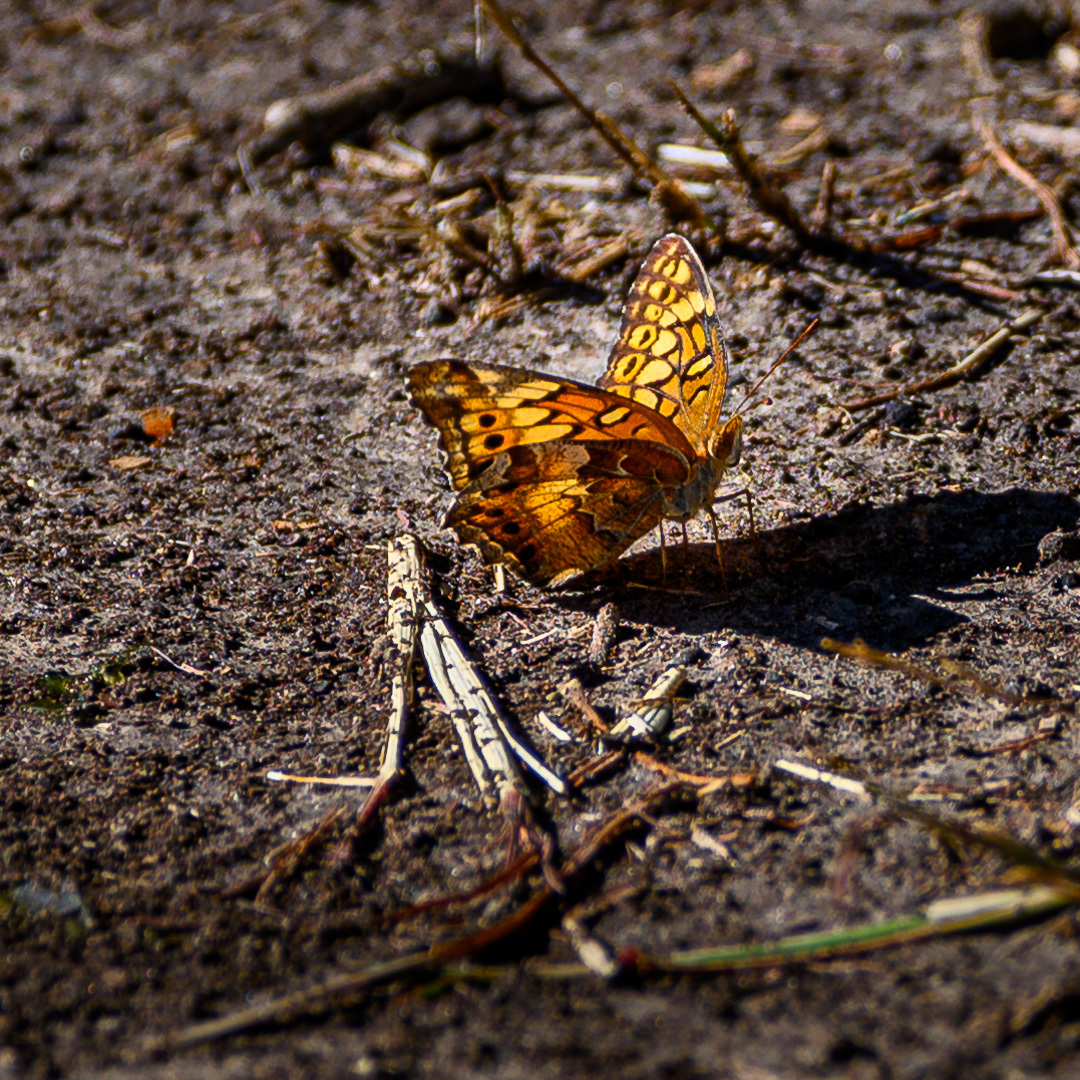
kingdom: Animalia
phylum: Arthropoda
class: Insecta
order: Lepidoptera
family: Nymphalidae
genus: Euptoieta
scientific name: Euptoieta claudia
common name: Variegated fritillary
